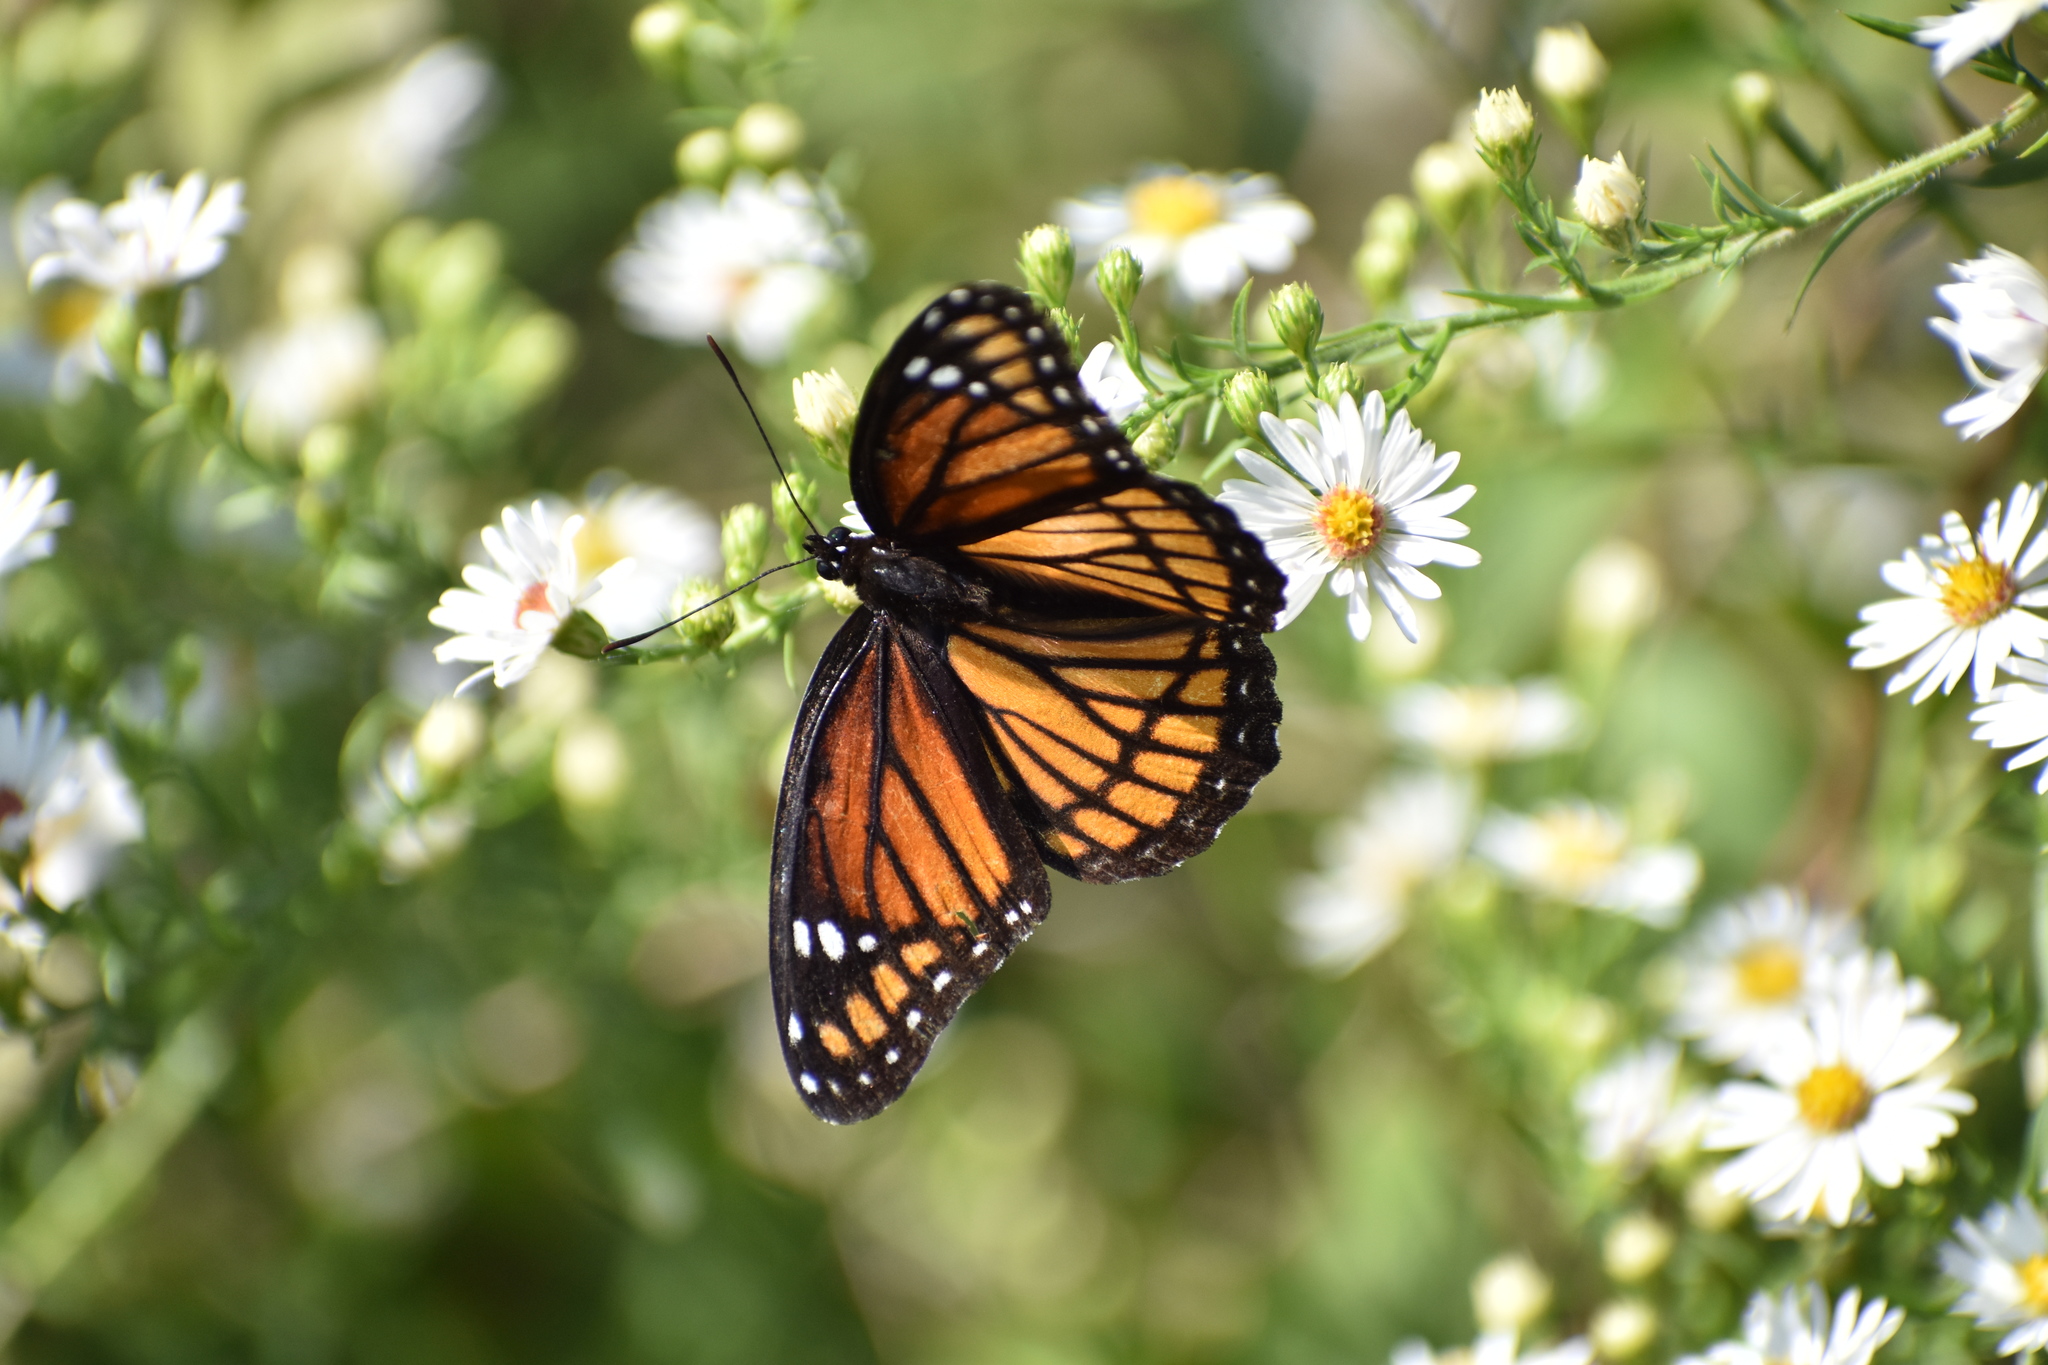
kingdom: Animalia
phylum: Arthropoda
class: Insecta
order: Lepidoptera
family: Nymphalidae
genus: Limenitis
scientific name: Limenitis archippus
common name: Viceroy
